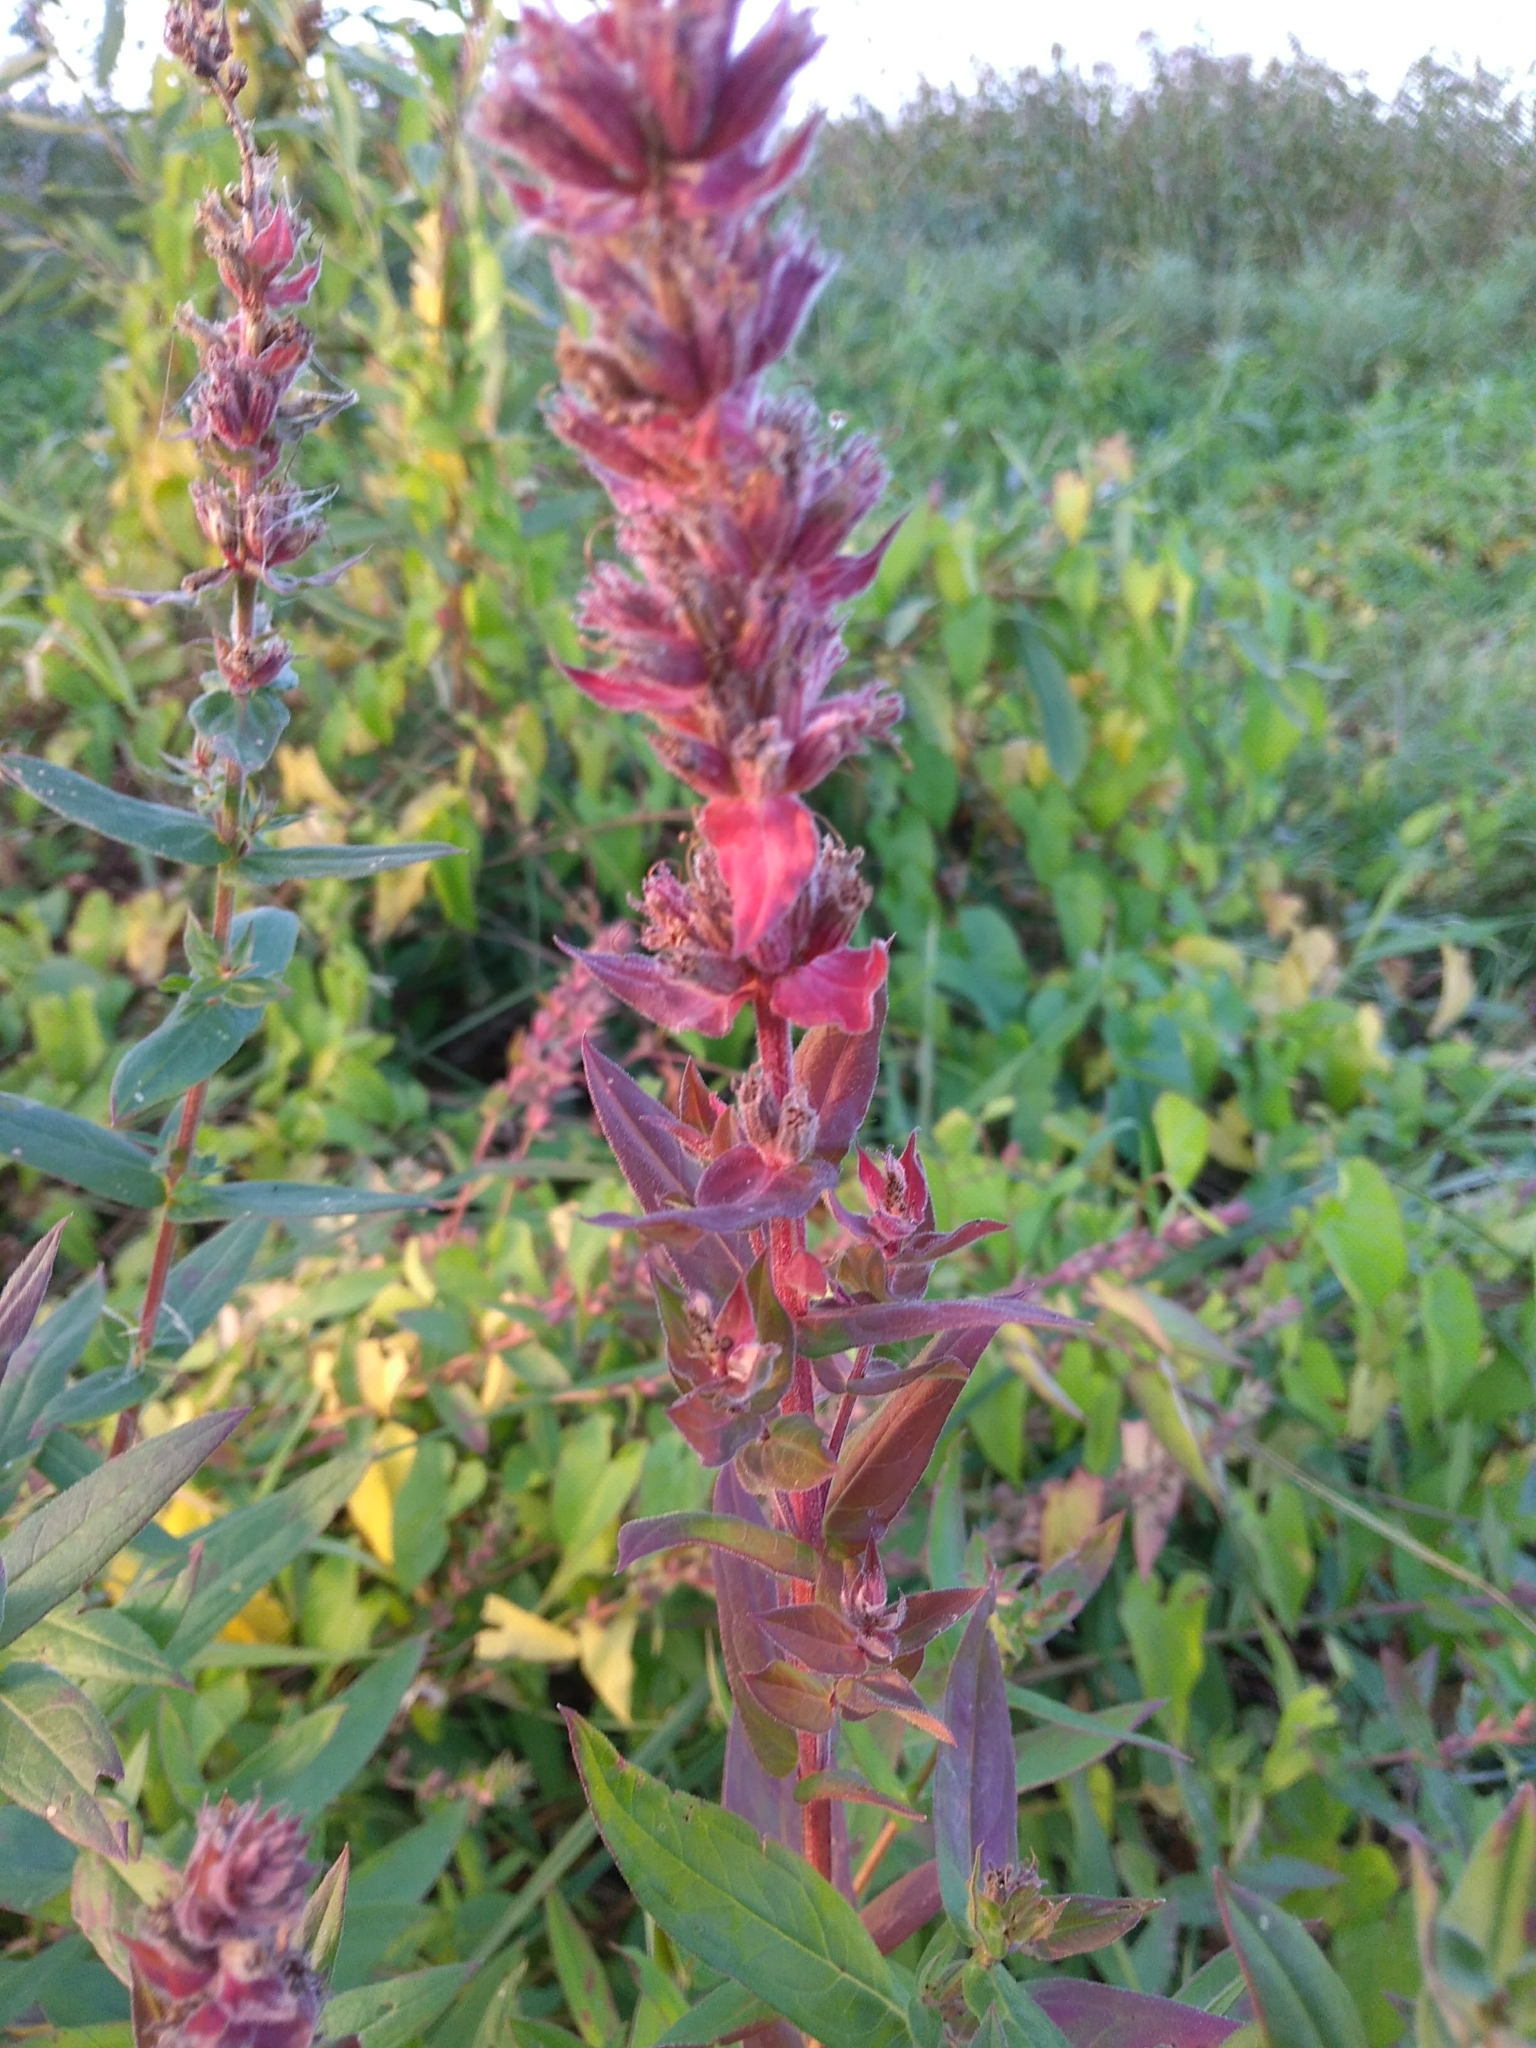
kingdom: Plantae
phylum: Tracheophyta
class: Magnoliopsida
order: Myrtales
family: Lythraceae
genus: Lythrum
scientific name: Lythrum salicaria
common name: Purple loosestrife
